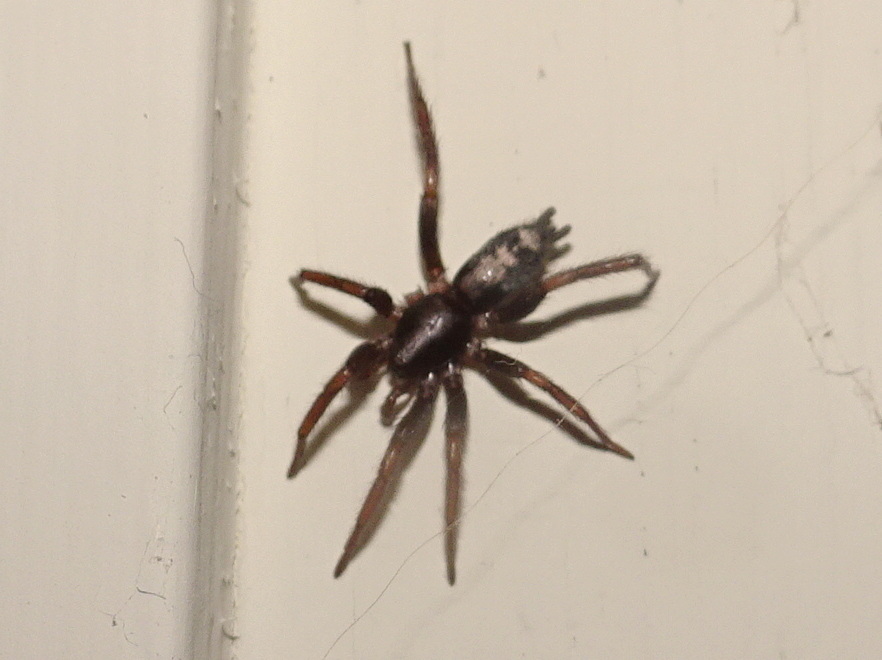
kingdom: Animalia
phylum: Arthropoda
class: Arachnida
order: Araneae
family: Gnaphosidae
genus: Herpyllus
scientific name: Herpyllus ecclesiasticus
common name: Eastern parson spider
